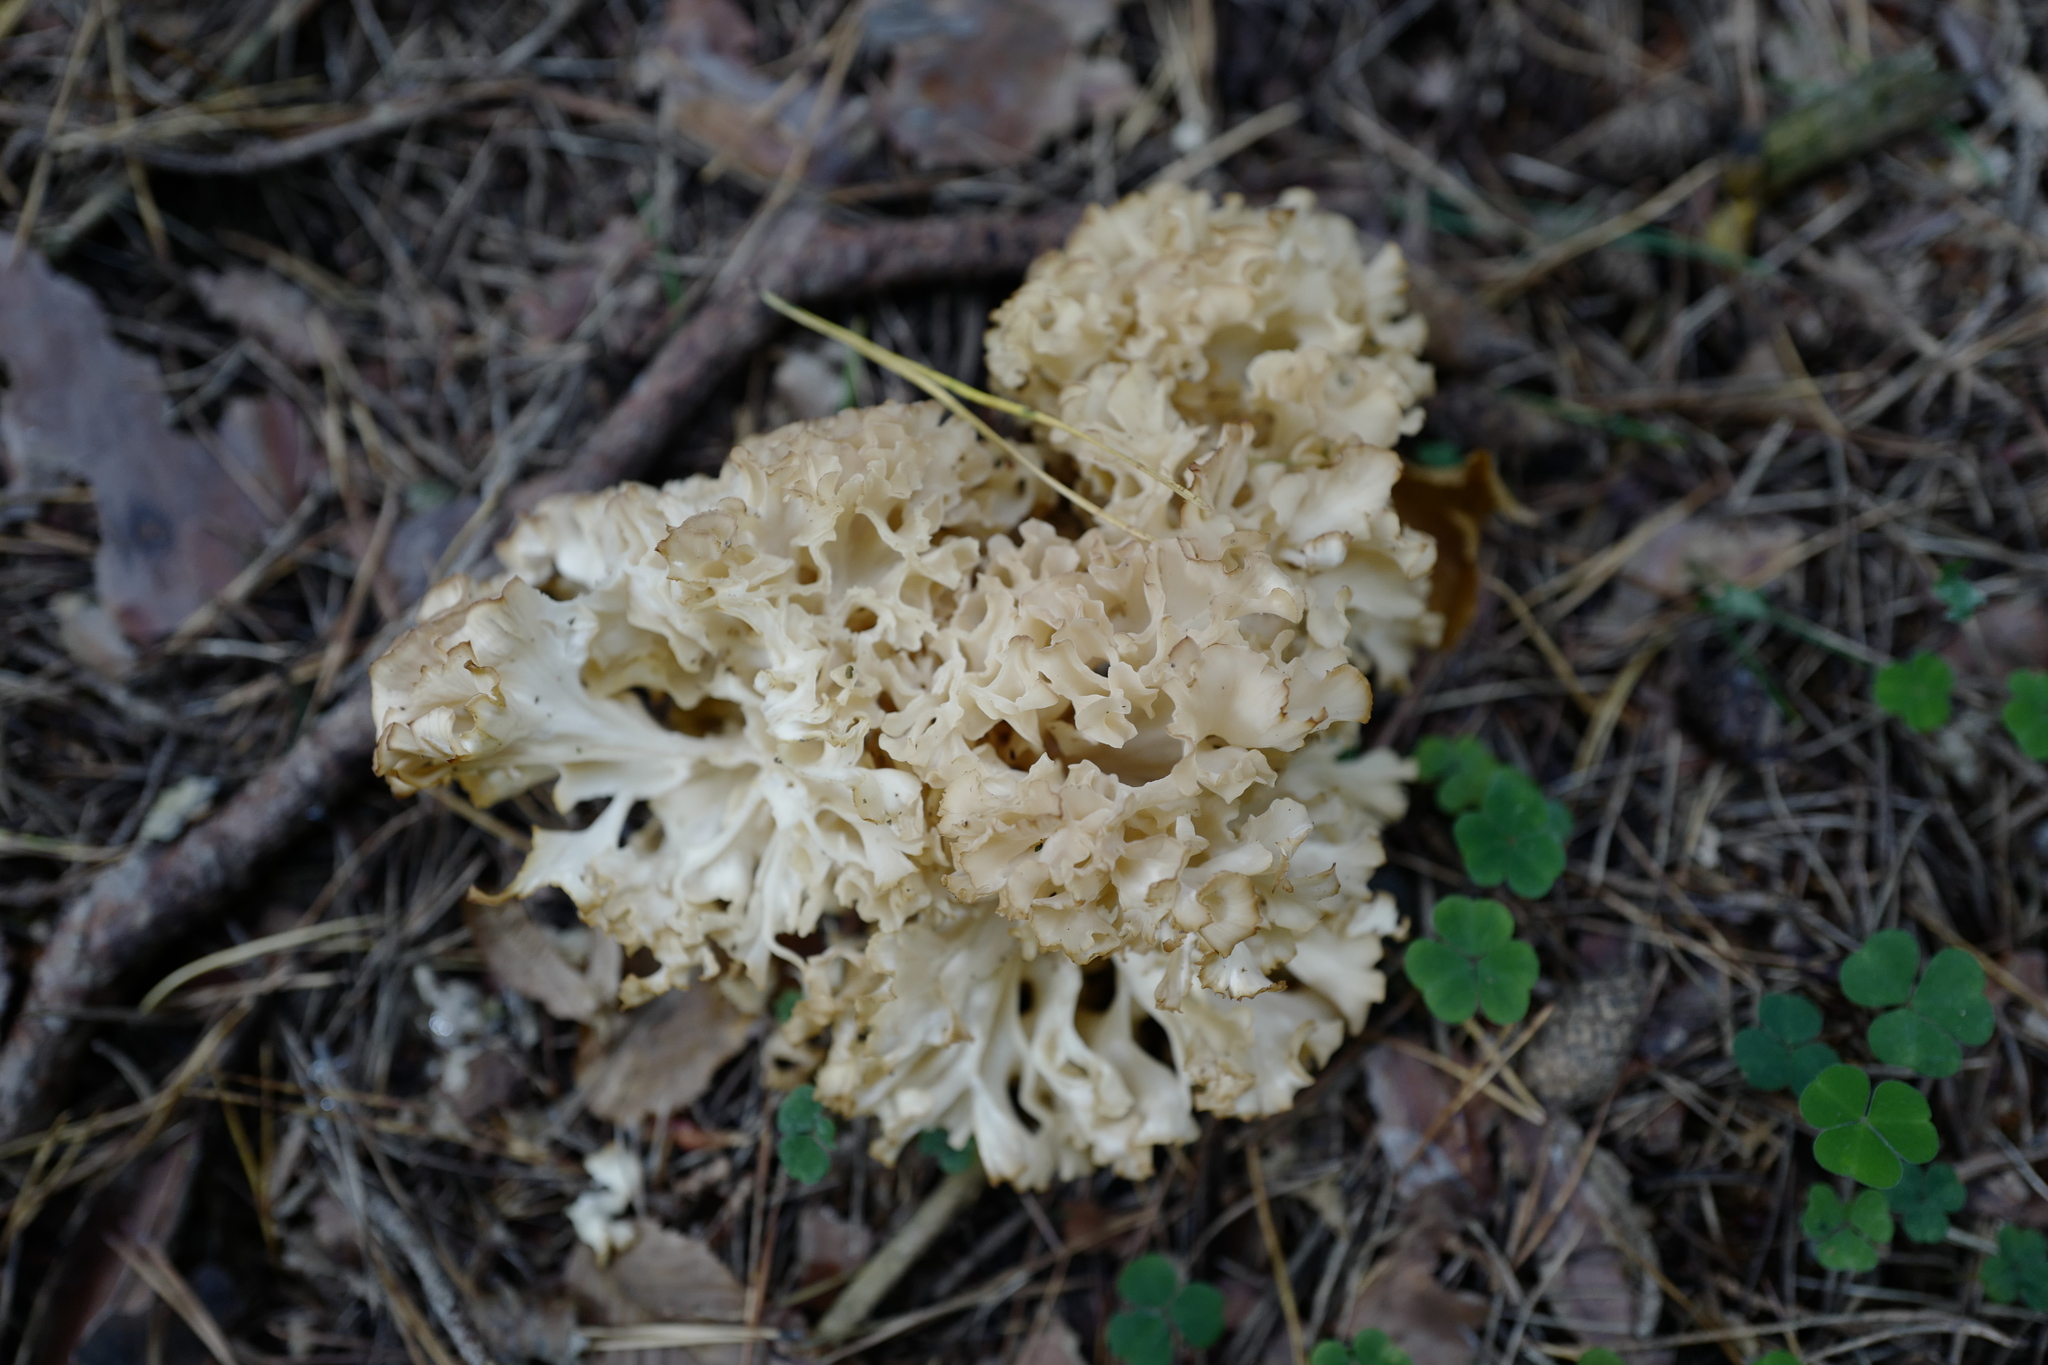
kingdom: Fungi
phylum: Basidiomycota
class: Agaricomycetes
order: Polyporales
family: Sparassidaceae
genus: Sparassis
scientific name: Sparassis crispa
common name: Brain fungus
